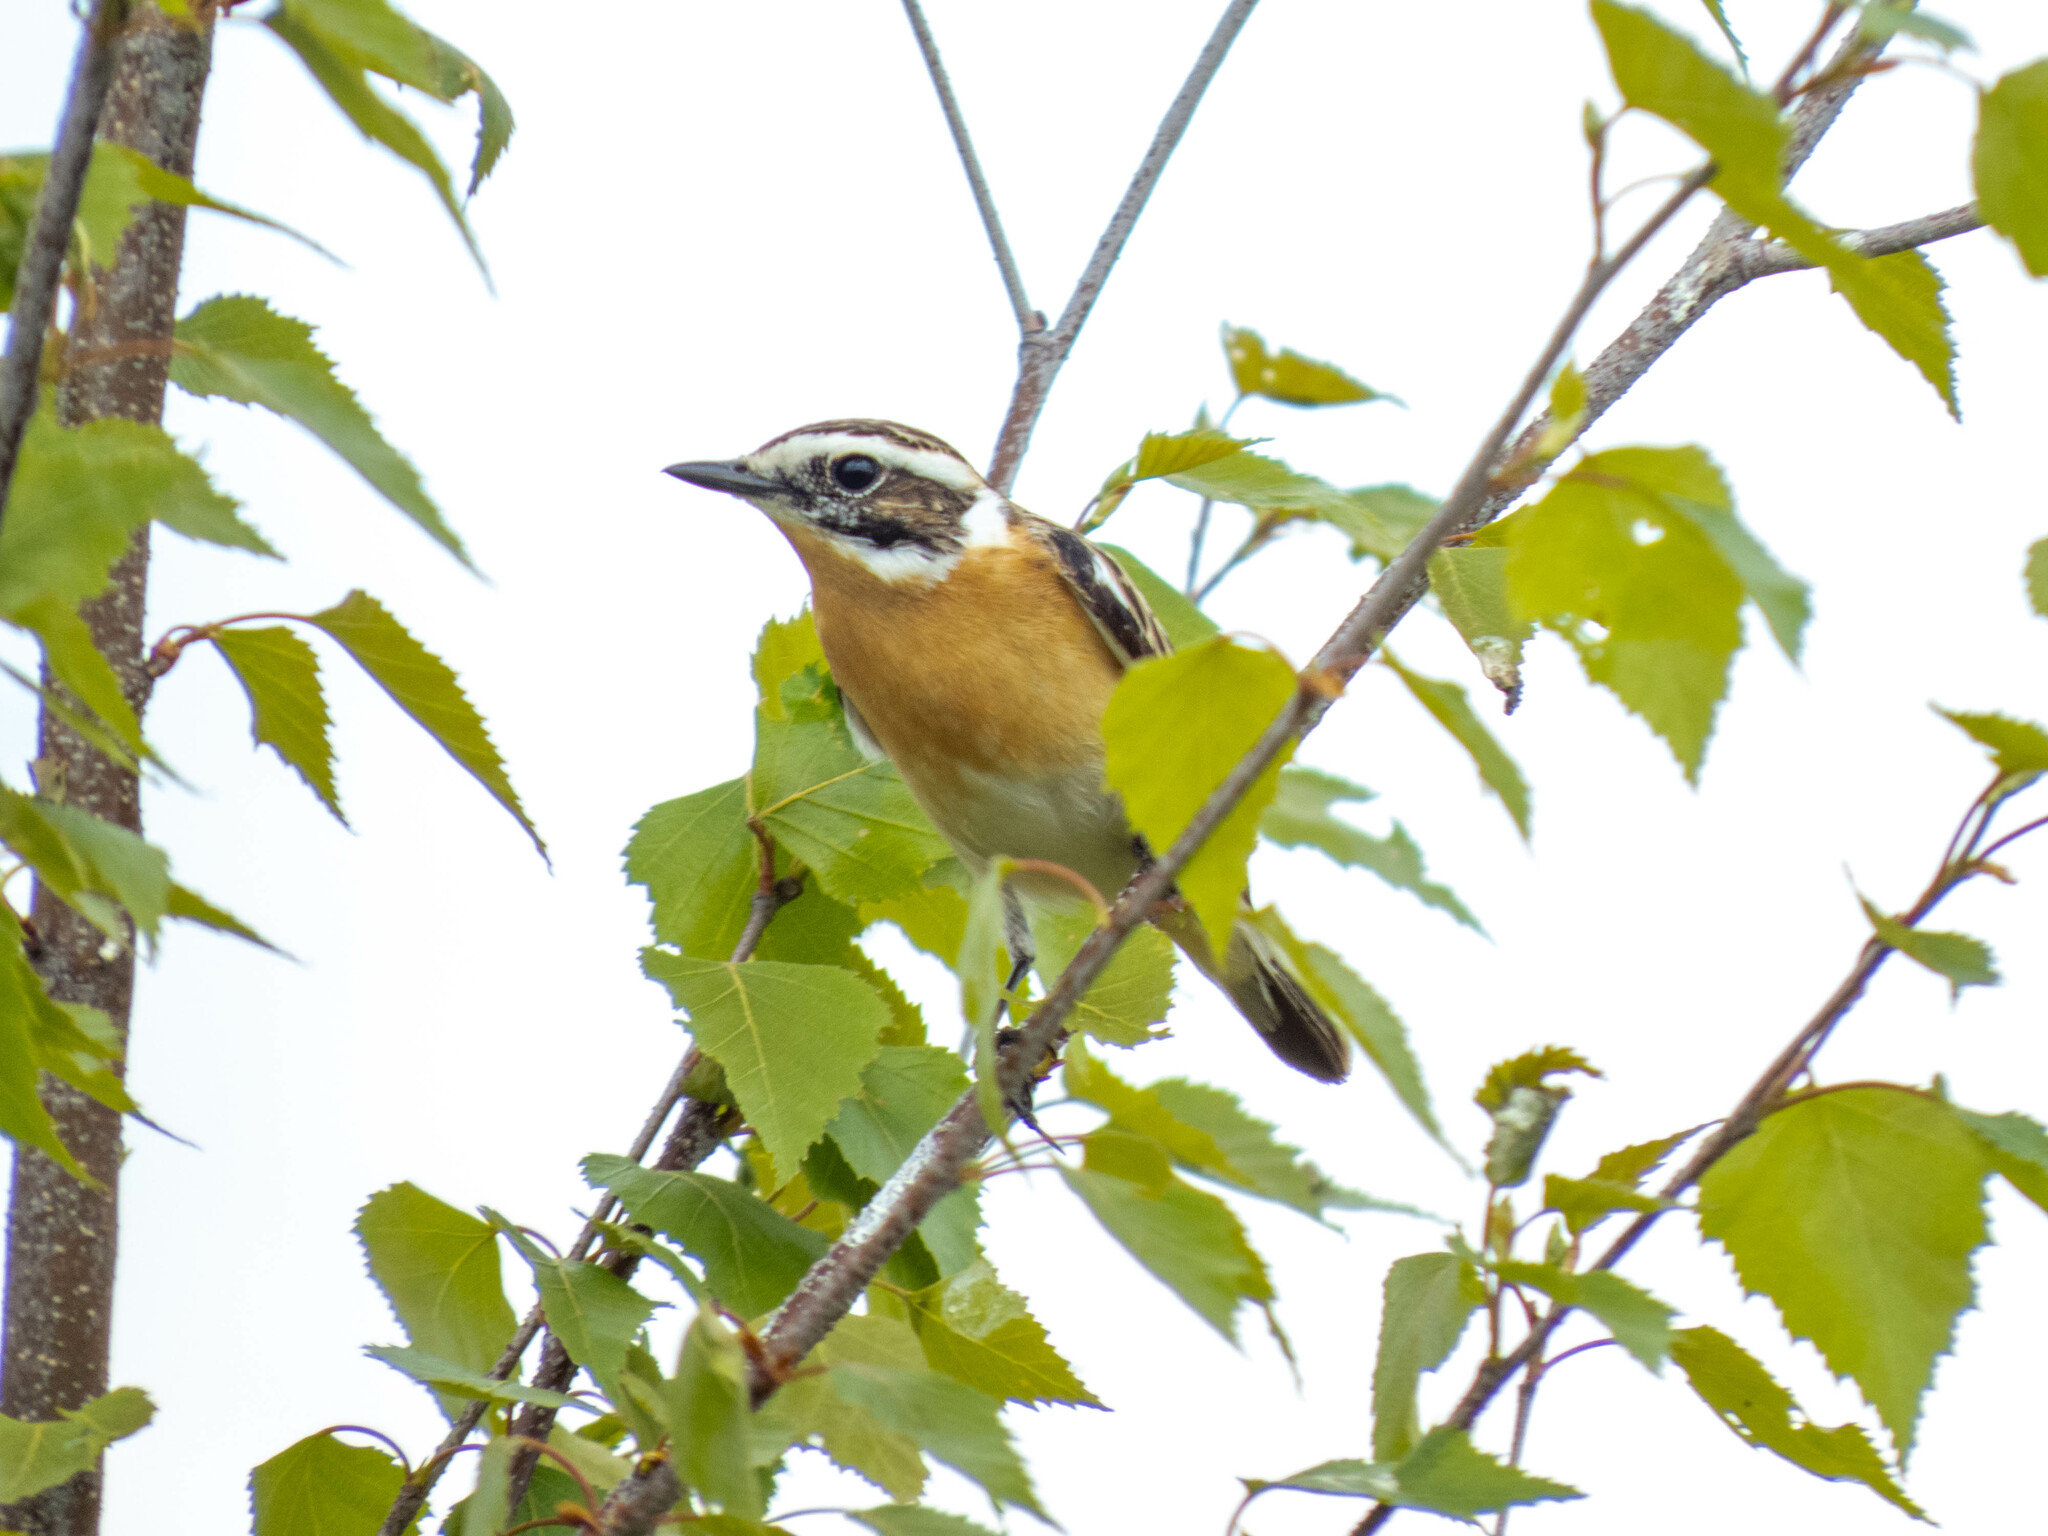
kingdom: Animalia
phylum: Chordata
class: Aves
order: Passeriformes
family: Muscicapidae
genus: Saxicola
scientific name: Saxicola rubetra
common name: Whinchat
